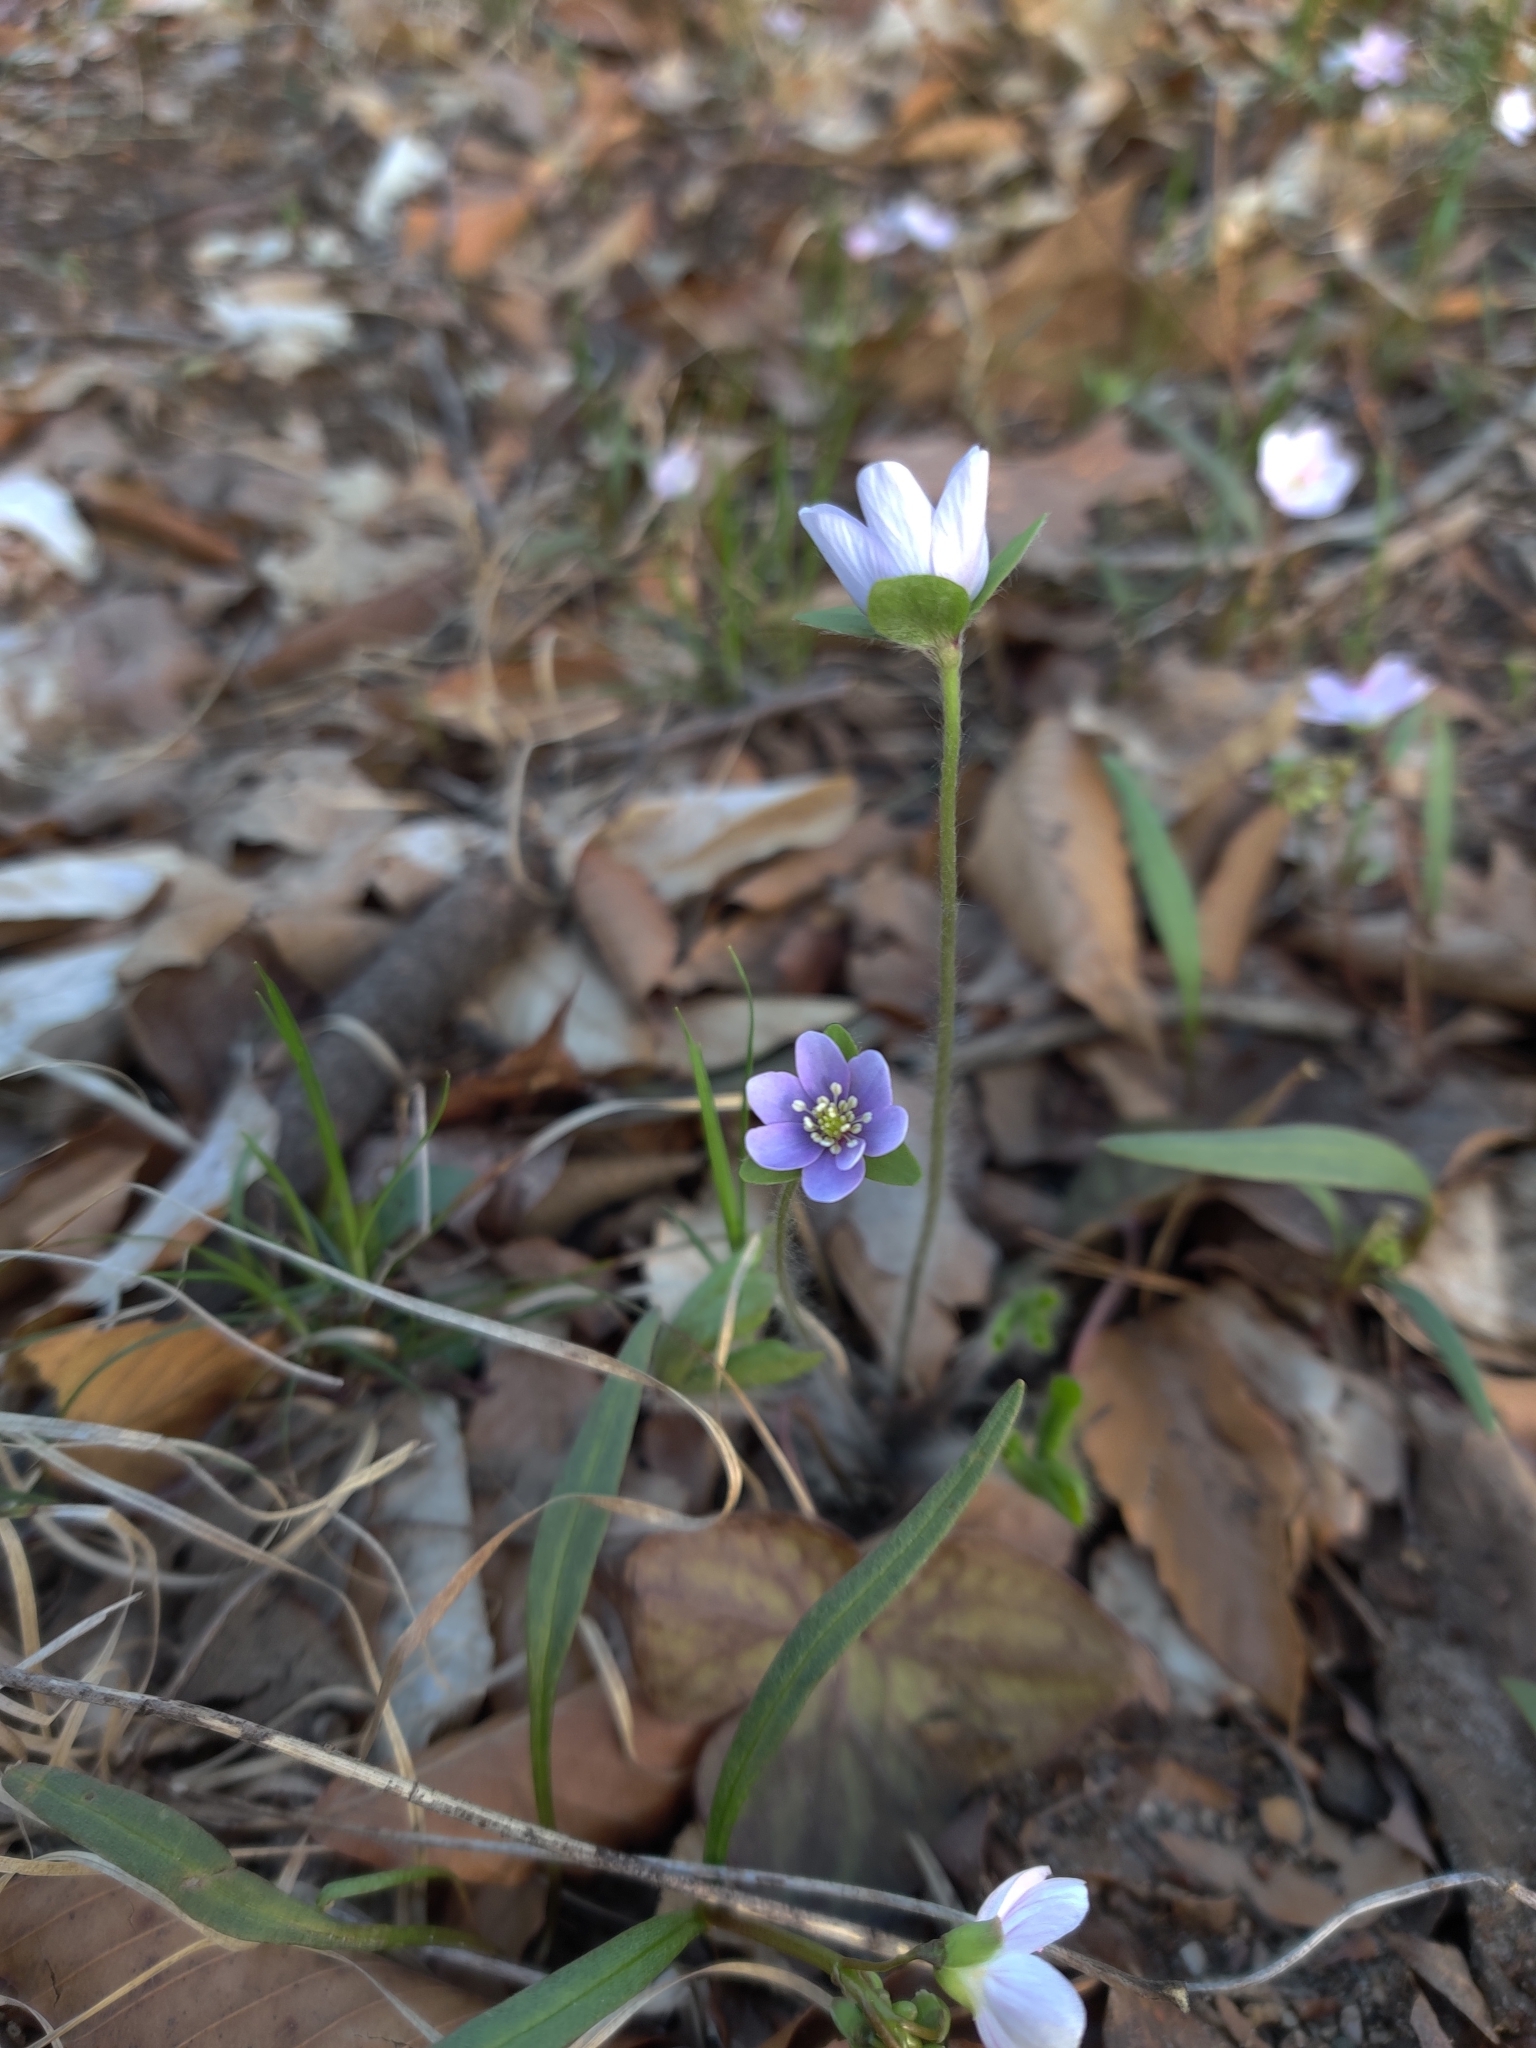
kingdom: Plantae
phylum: Tracheophyta
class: Magnoliopsida
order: Ranunculales
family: Ranunculaceae
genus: Hepatica
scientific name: Hepatica acutiloba
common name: Sharp-lobed hepatica
